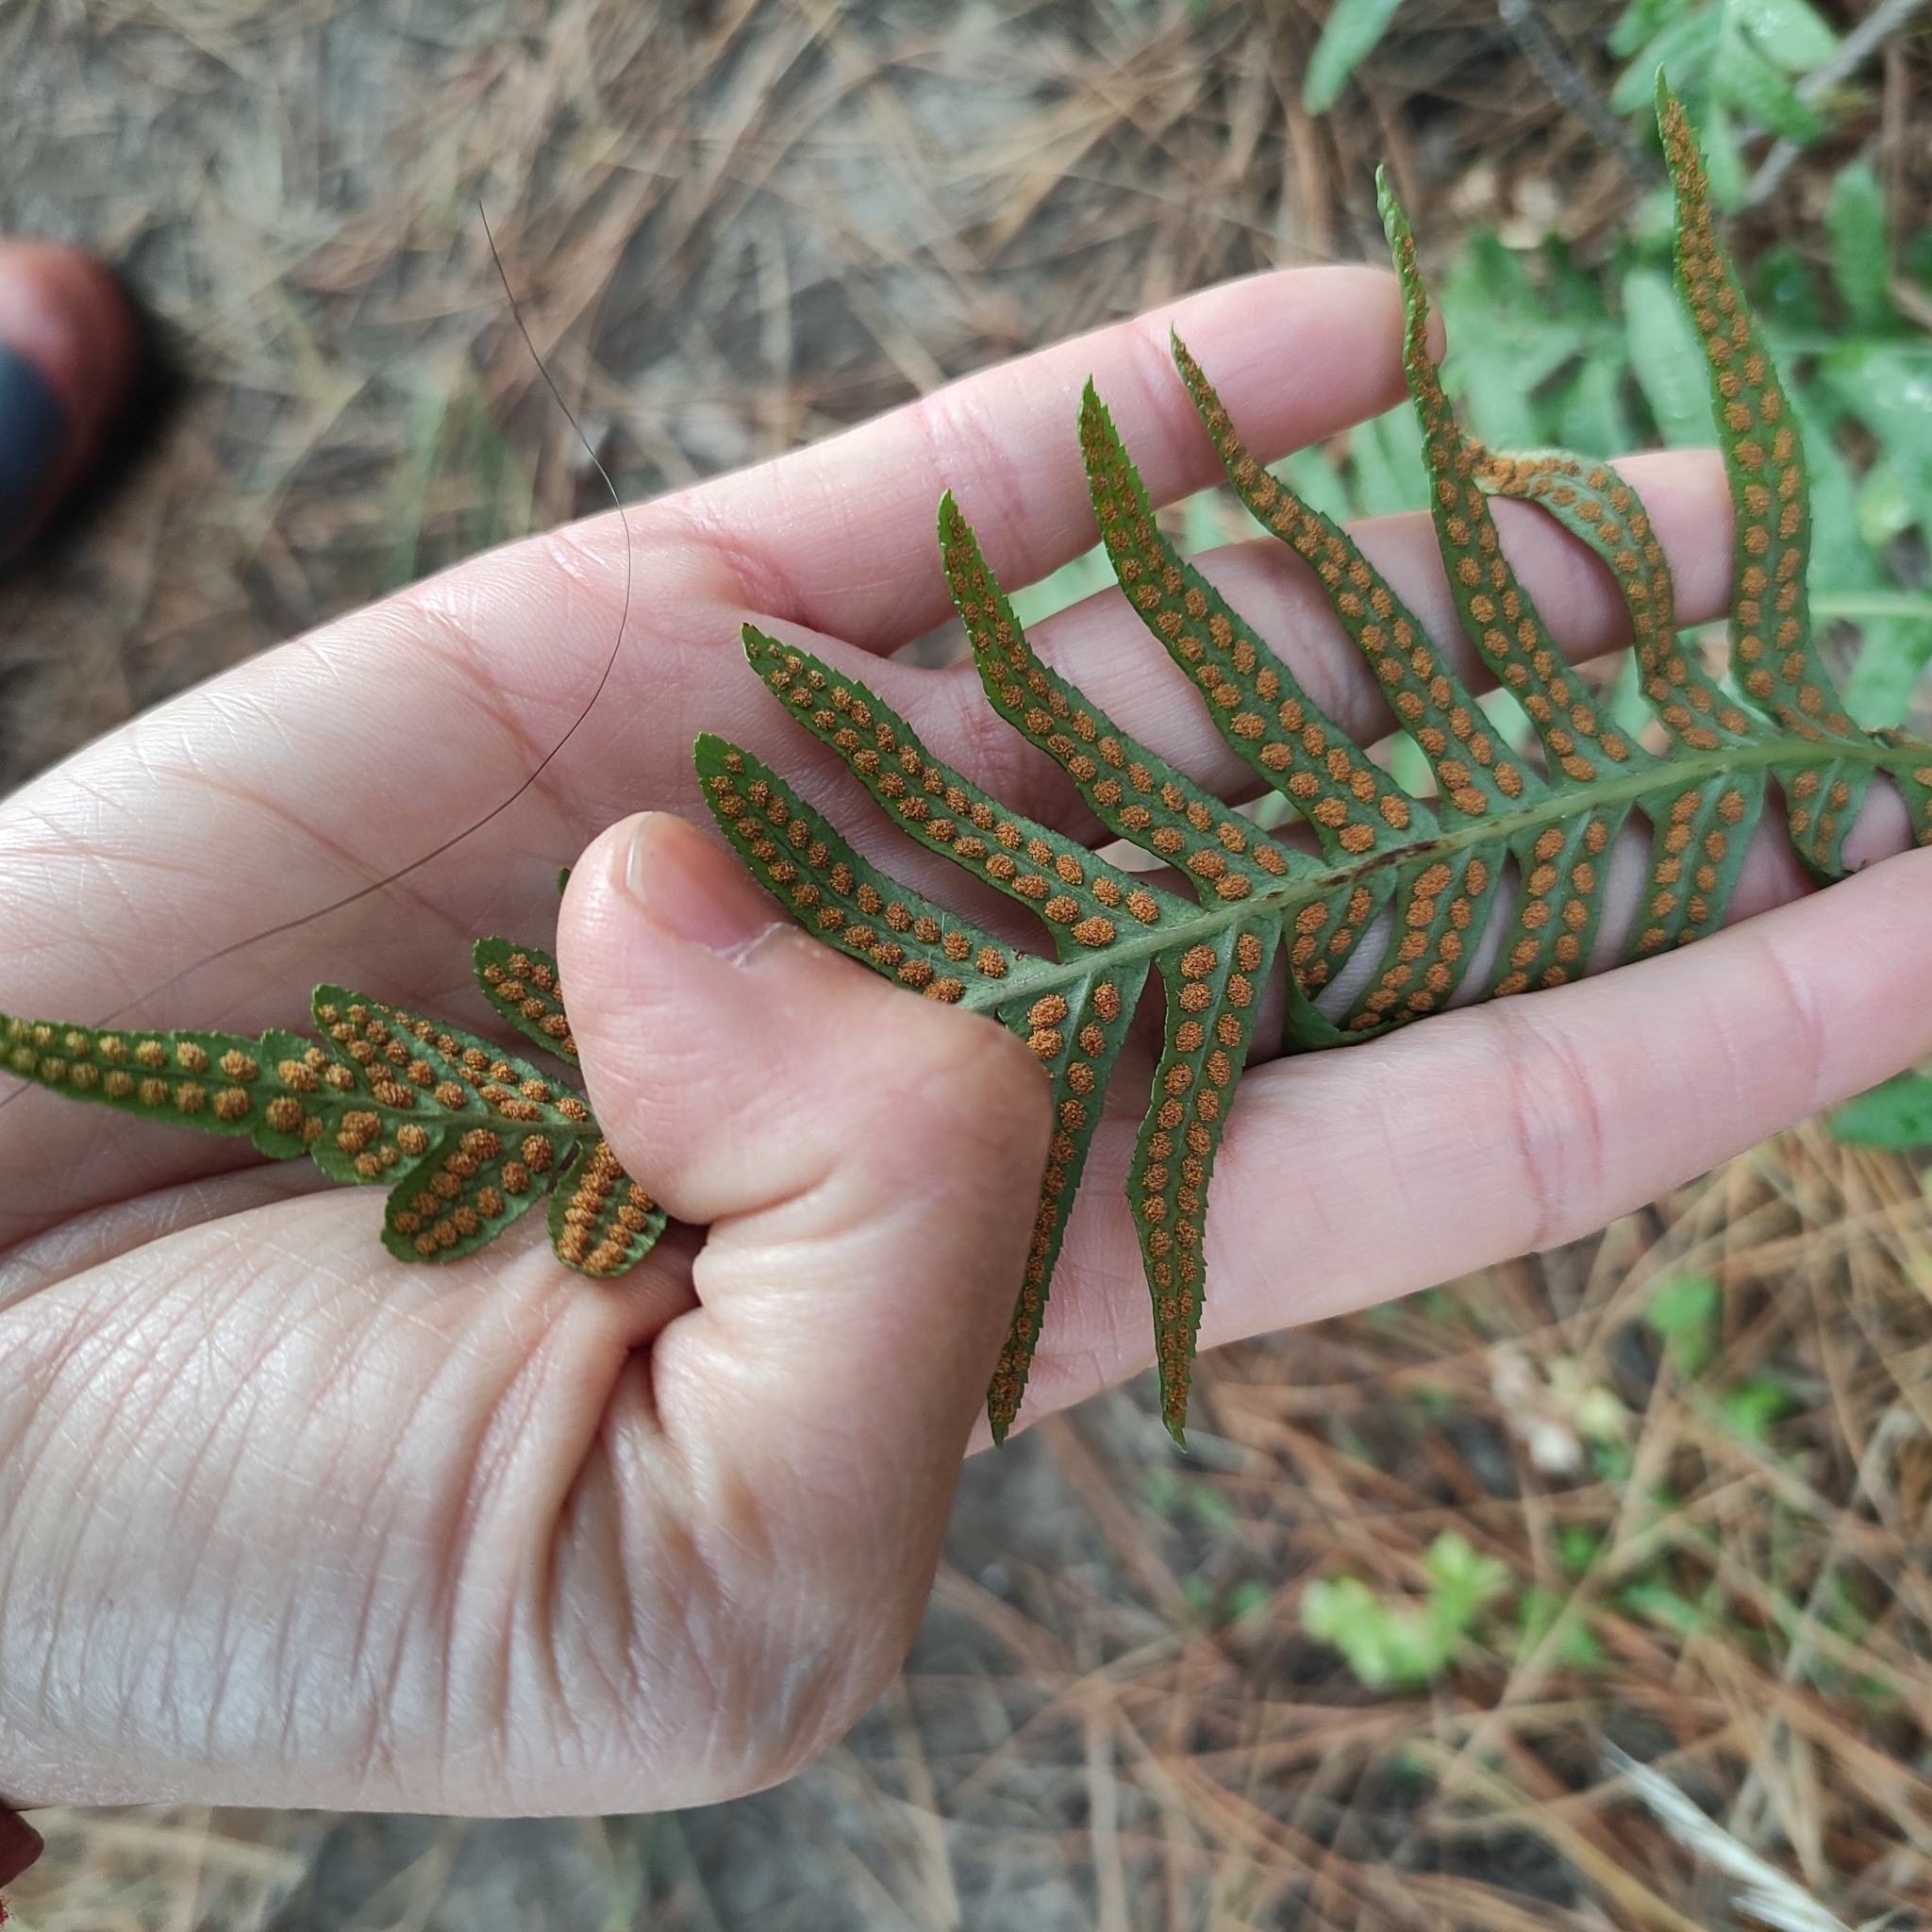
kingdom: Plantae
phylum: Tracheophyta
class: Polypodiopsida
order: Polypodiales
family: Polypodiaceae
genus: Polypodium
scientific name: Polypodium vulgare
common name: Common polypody
